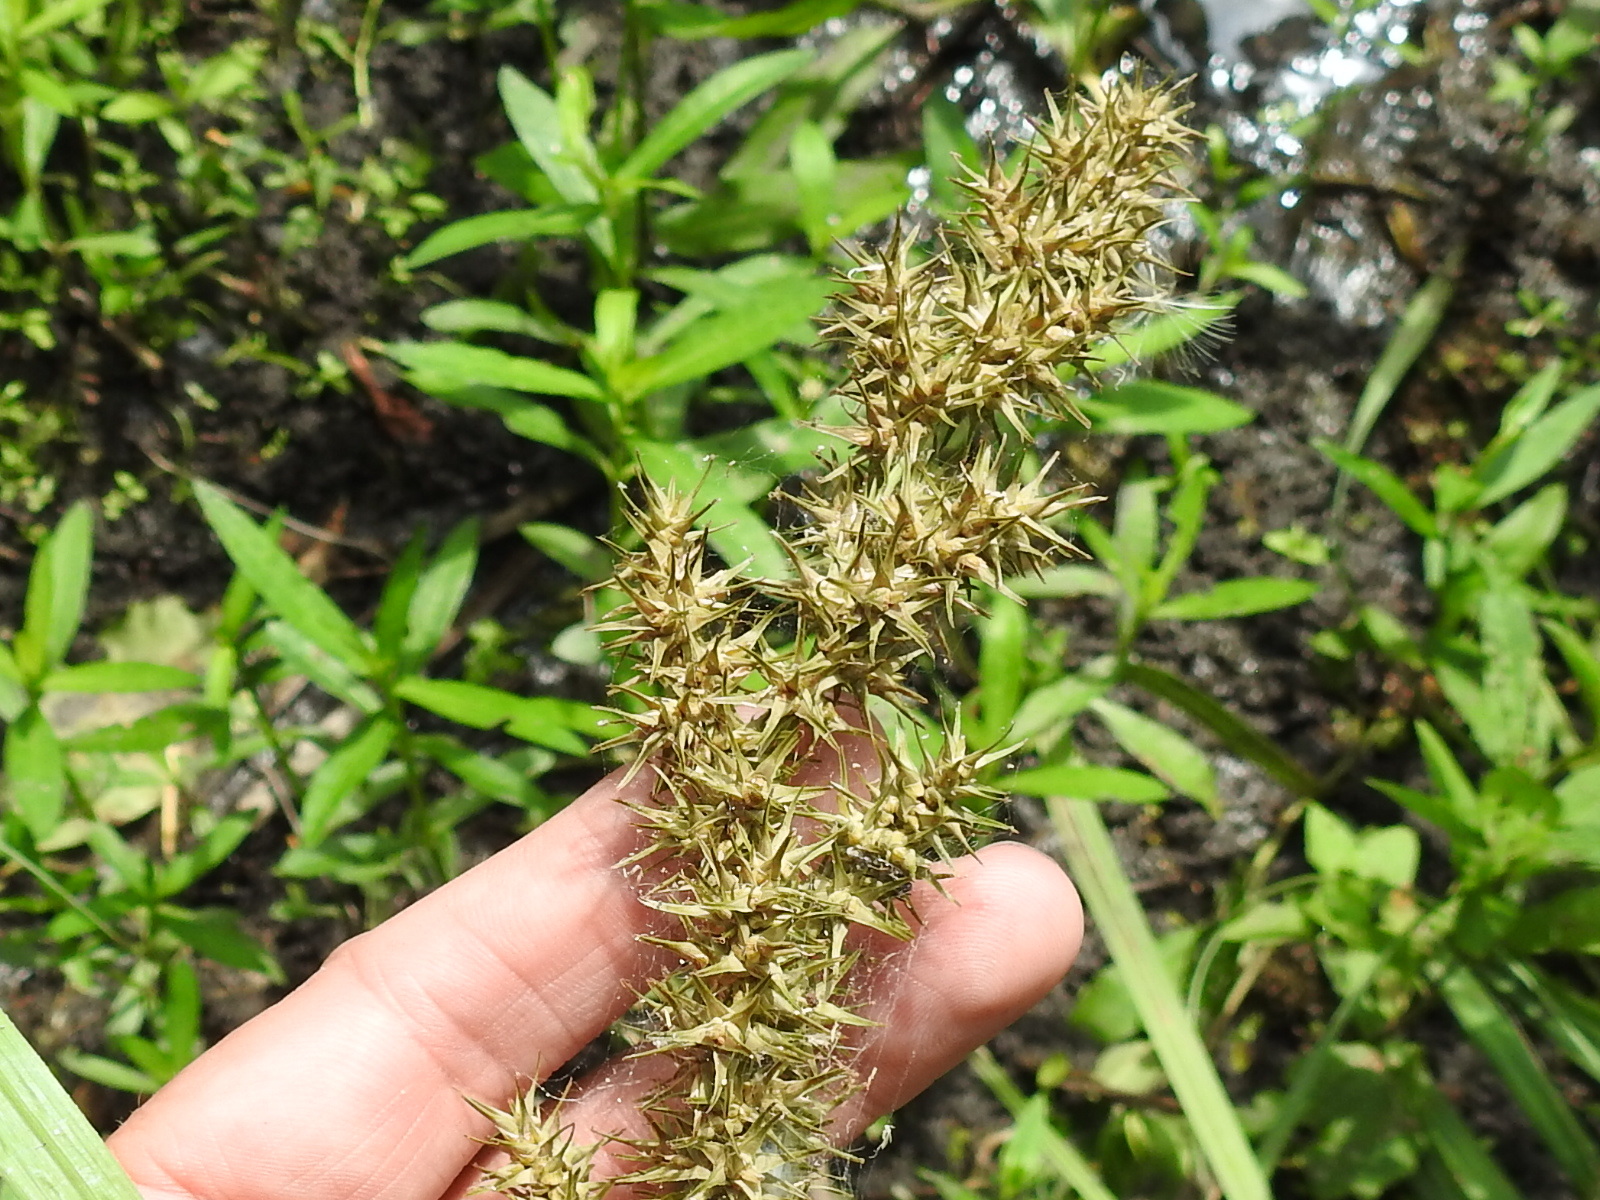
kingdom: Plantae
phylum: Tracheophyta
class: Liliopsida
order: Poales
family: Cyperaceae
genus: Carex
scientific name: Carex crus-corvi
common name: Crow-spur sedge
